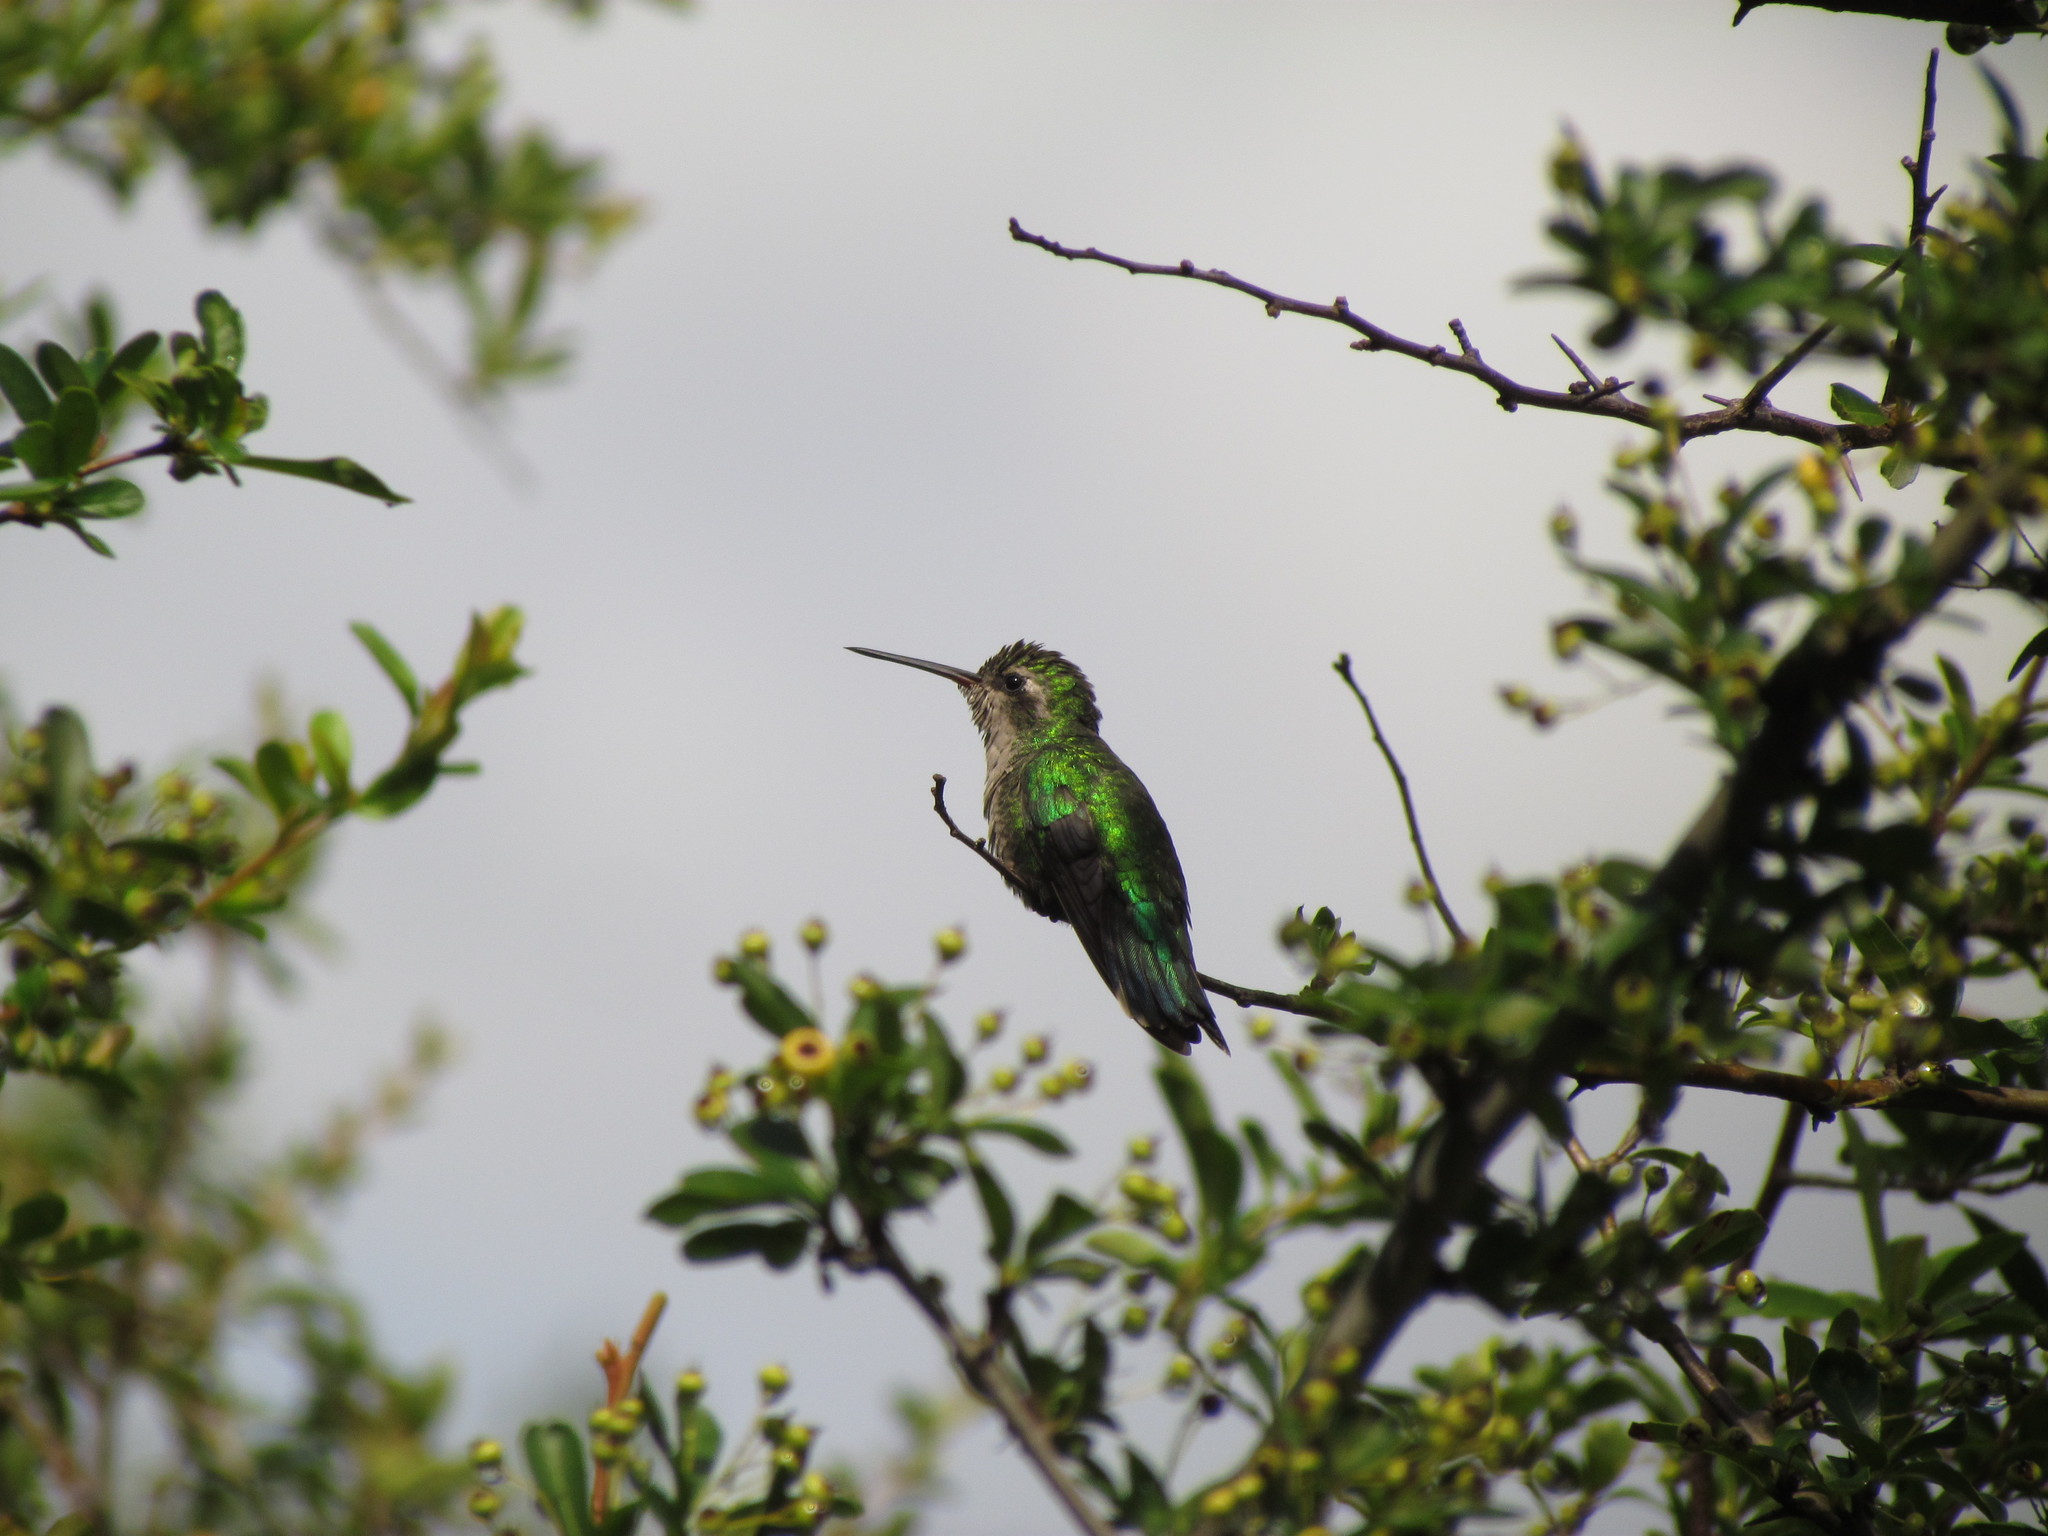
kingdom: Animalia
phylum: Chordata
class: Aves
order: Apodiformes
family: Trochilidae
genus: Chlorostilbon
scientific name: Chlorostilbon lucidus
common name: Glittering-bellied emerald
